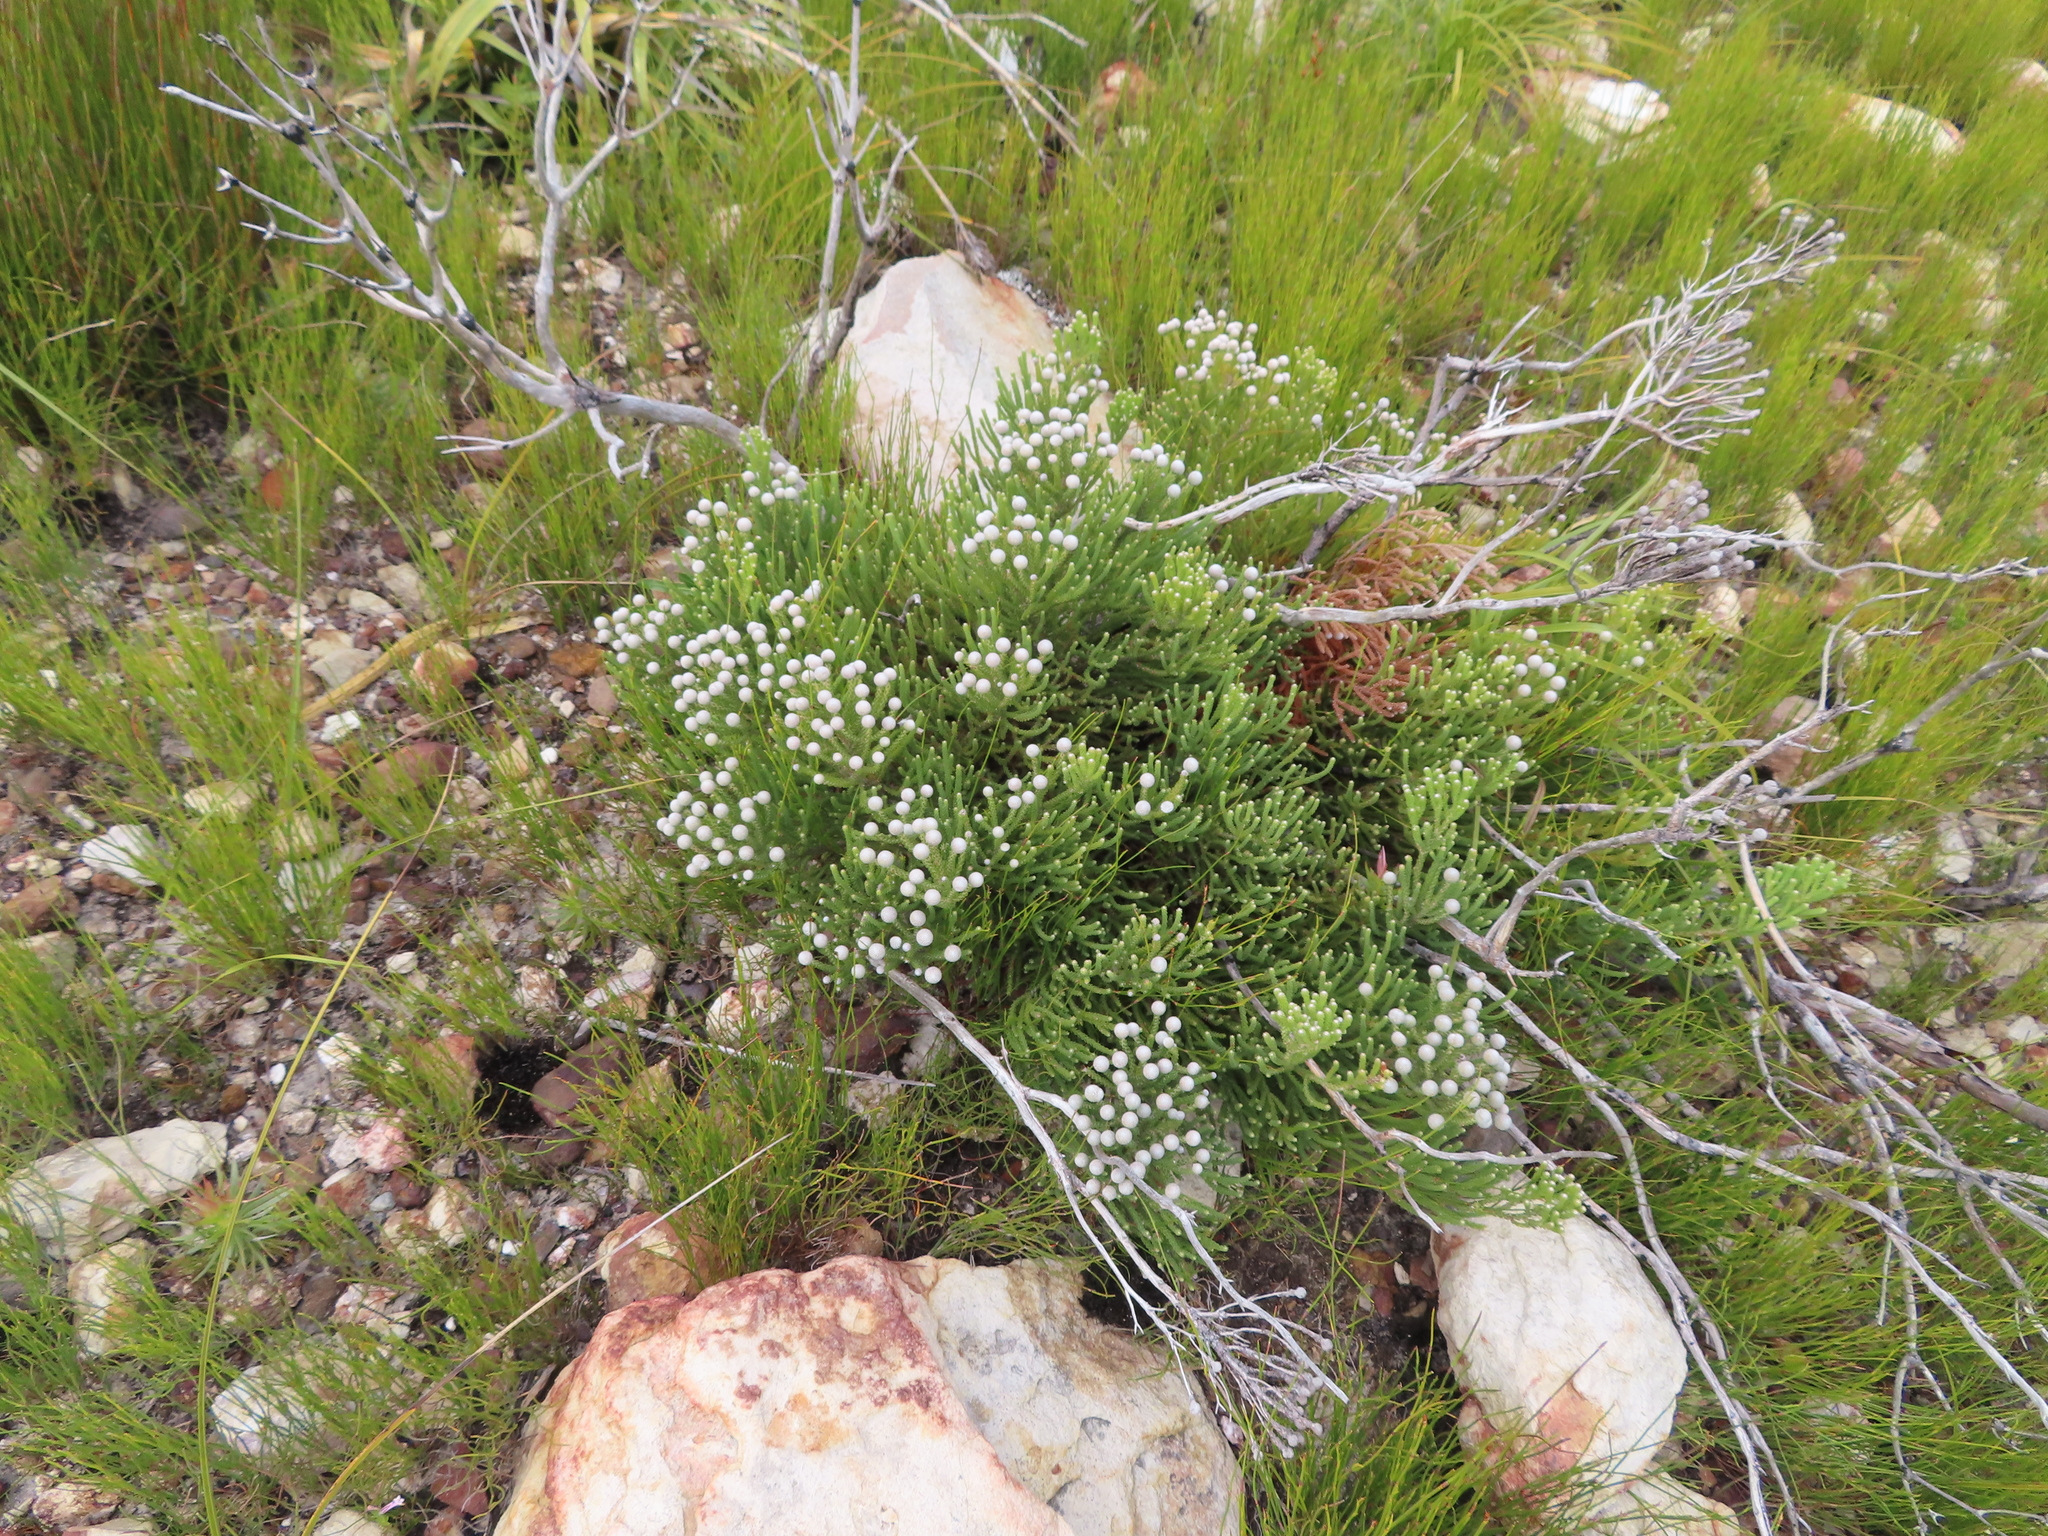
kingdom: Plantae
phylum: Tracheophyta
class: Magnoliopsida
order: Bruniales
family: Bruniaceae
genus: Brunia
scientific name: Brunia noduliflora
